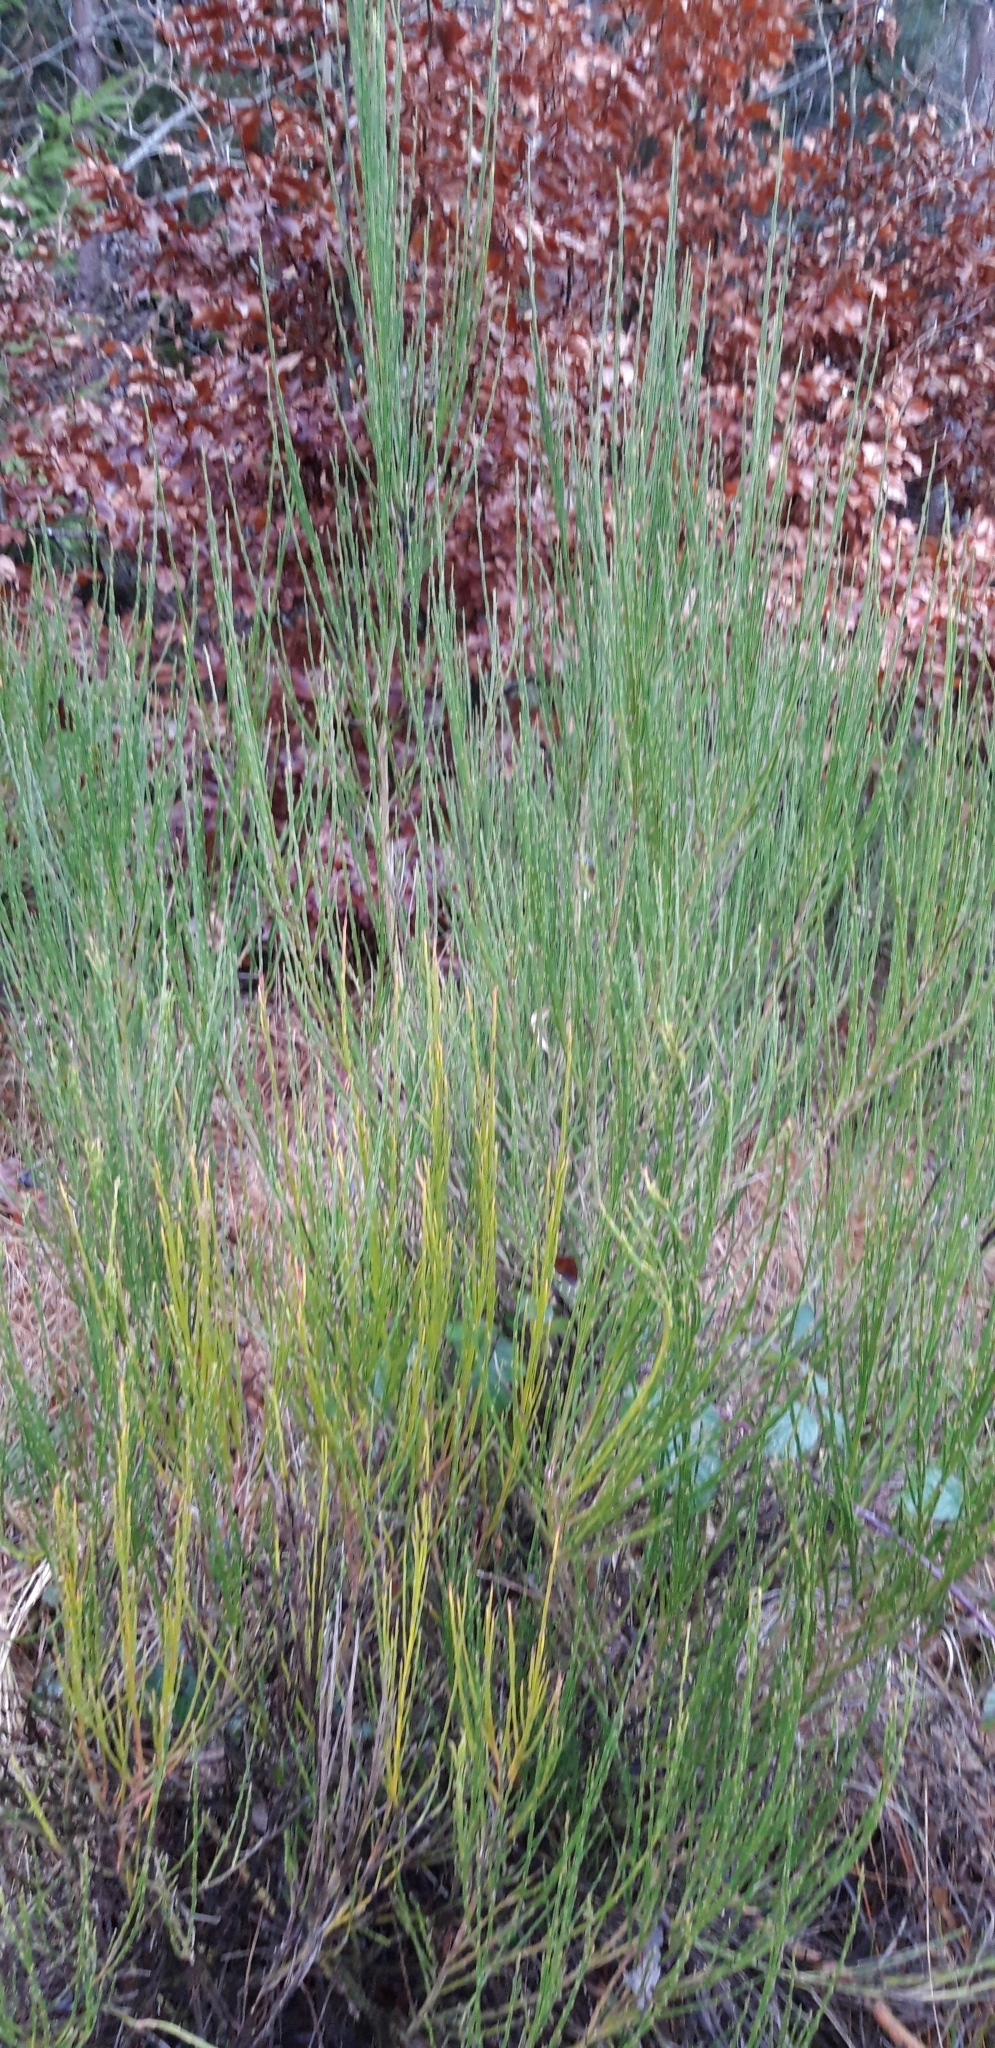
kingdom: Plantae
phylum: Tracheophyta
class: Magnoliopsida
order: Fabales
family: Fabaceae
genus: Cytisus
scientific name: Cytisus scoparius
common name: Scotch broom
